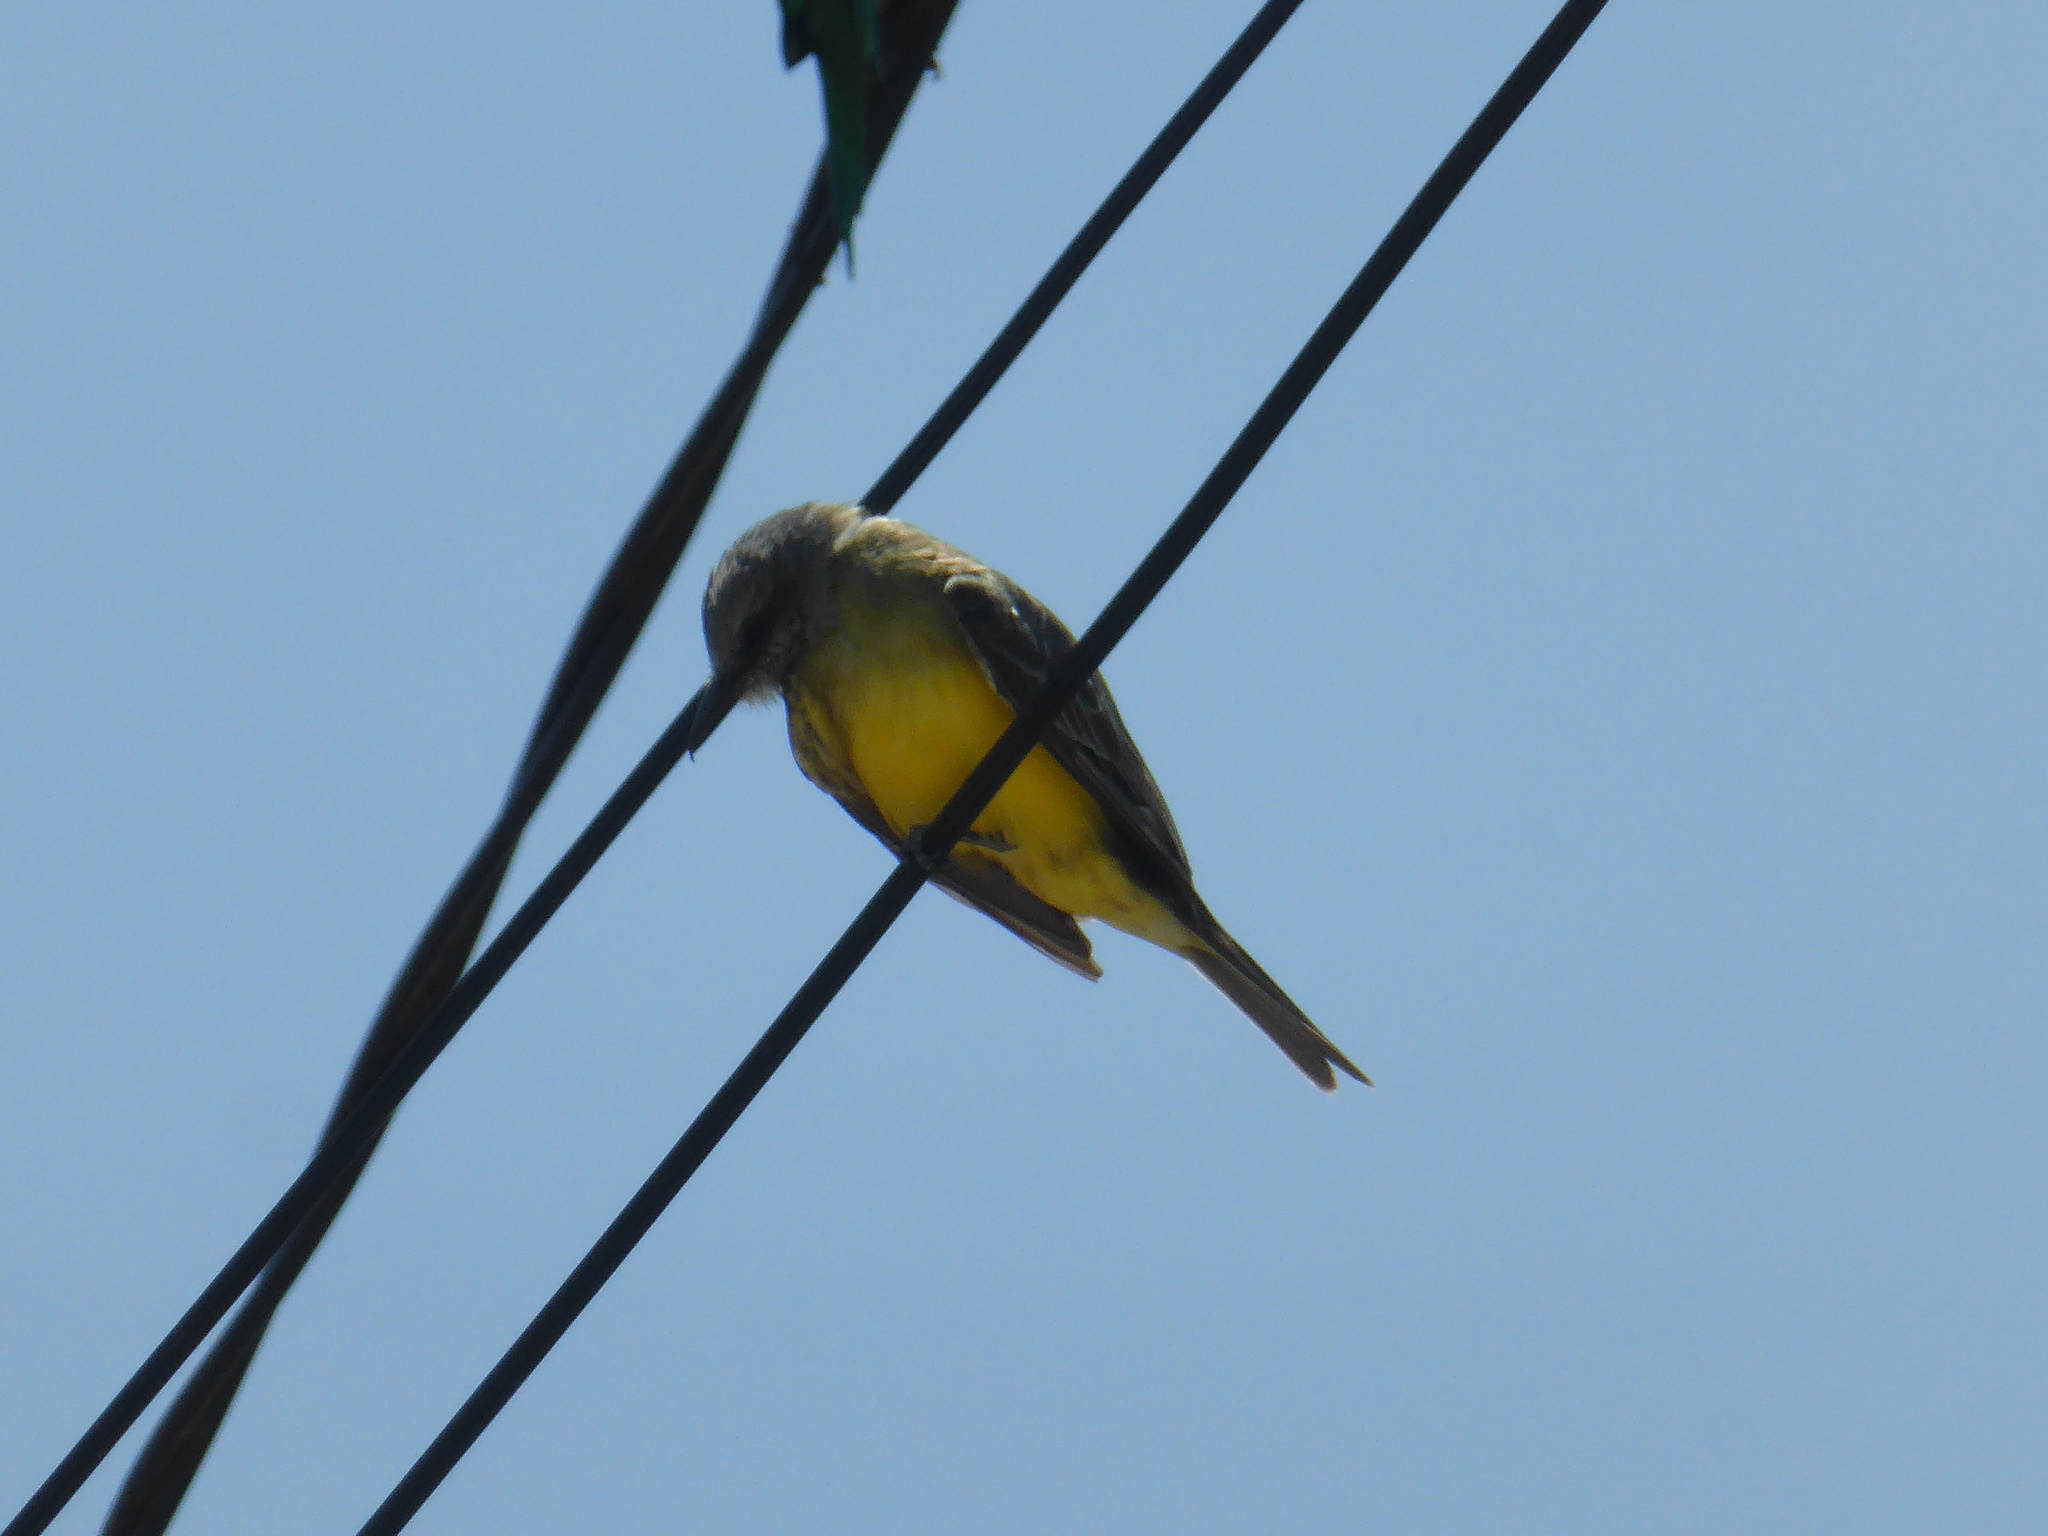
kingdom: Animalia
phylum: Chordata
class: Aves
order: Passeriformes
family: Tyrannidae
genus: Tyrannus
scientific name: Tyrannus melancholicus
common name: Tropical kingbird
